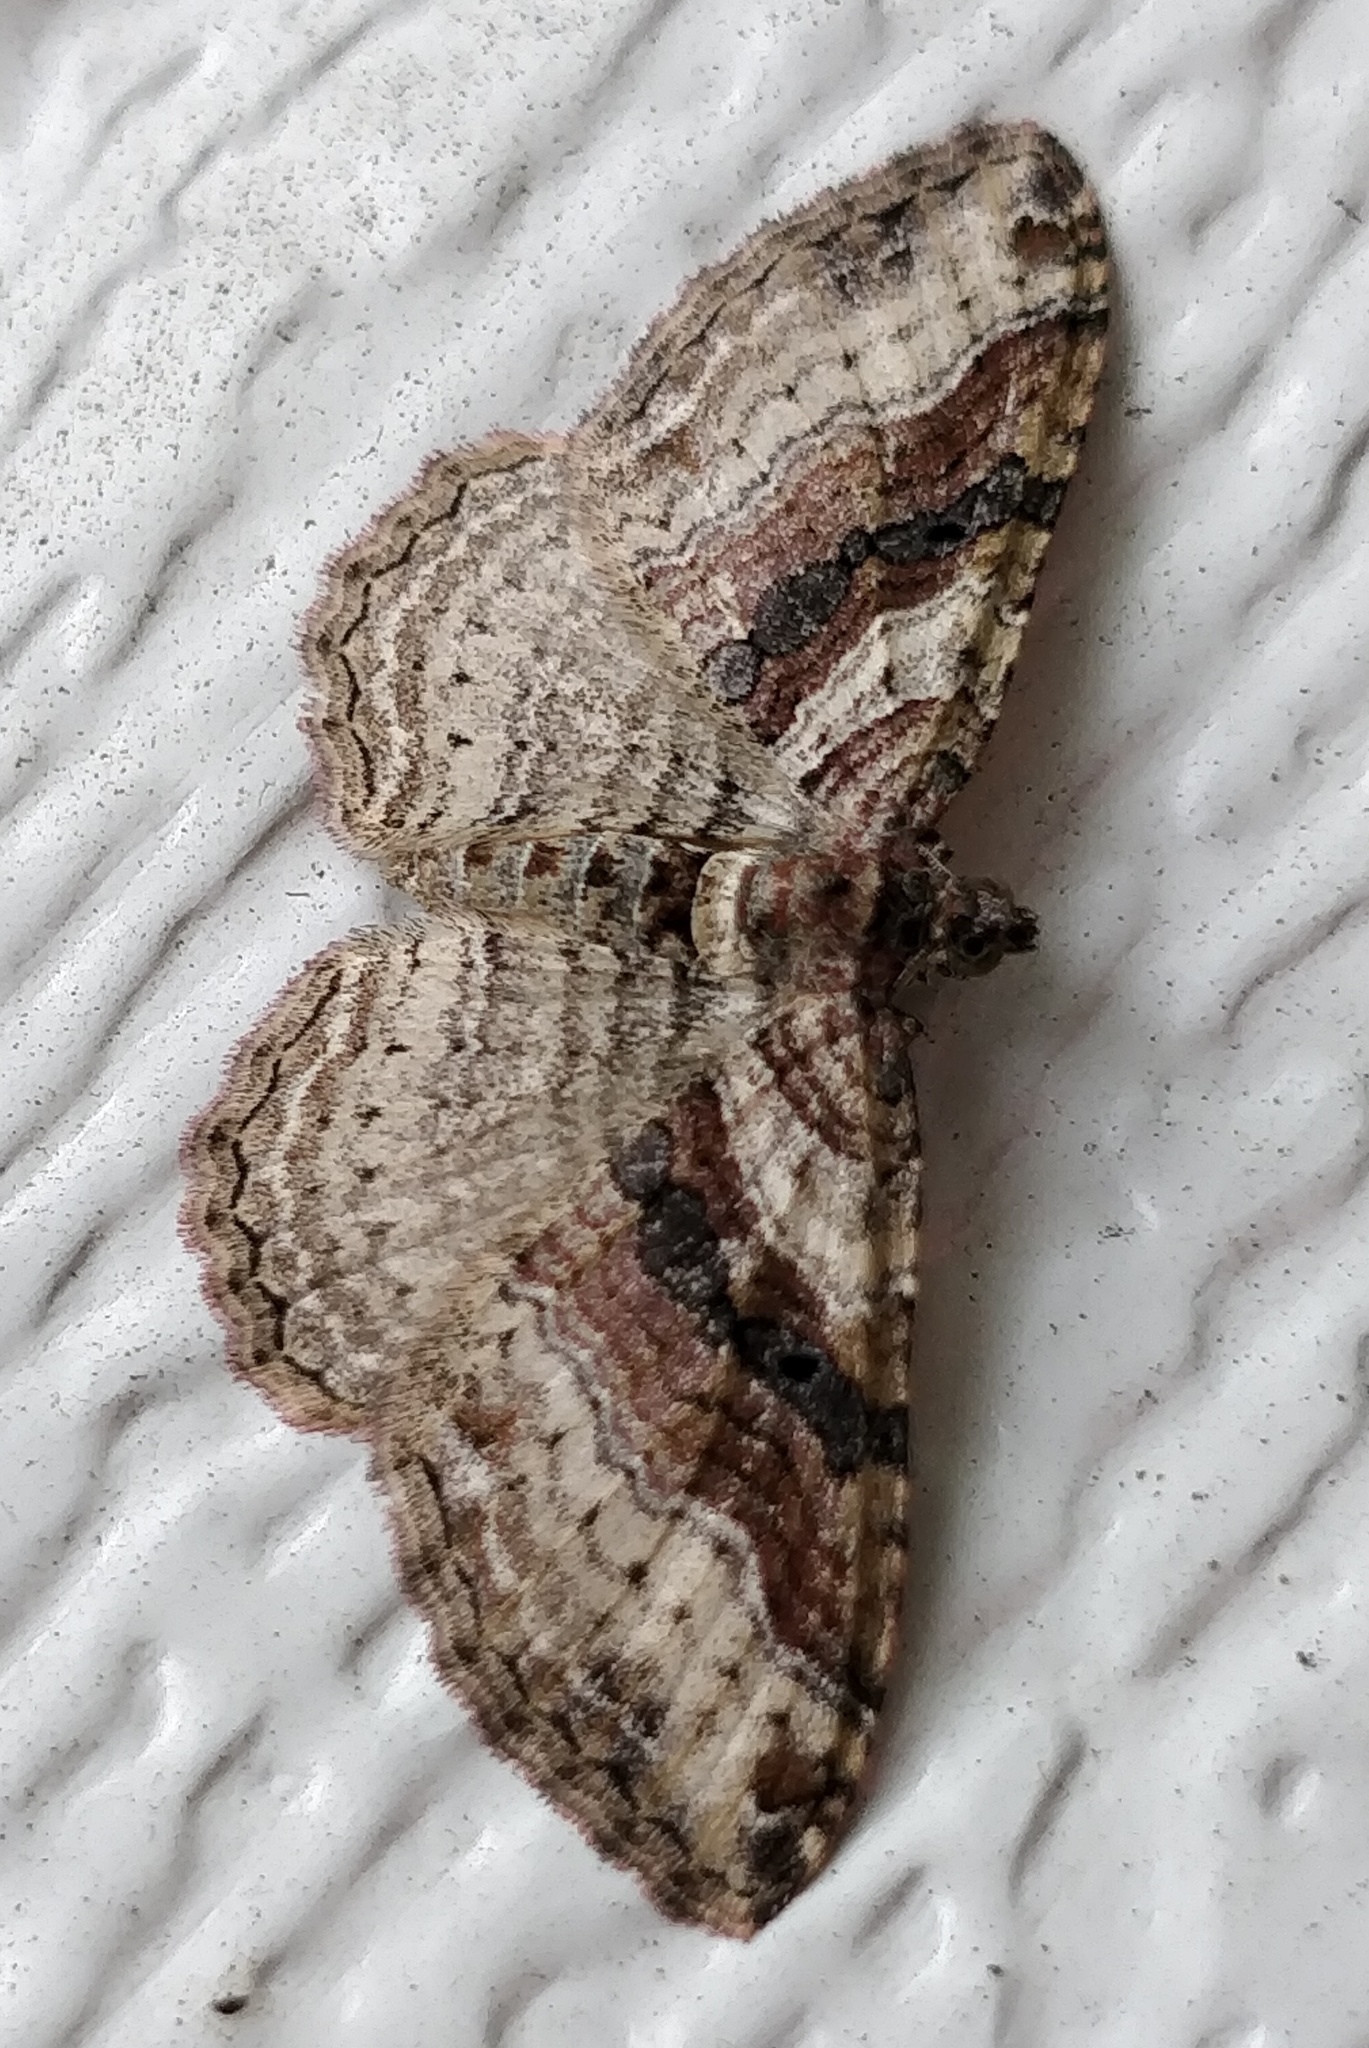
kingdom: Animalia
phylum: Arthropoda
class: Insecta
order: Lepidoptera
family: Geometridae
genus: Costaconvexa
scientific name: Costaconvexa centrostrigaria
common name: Bent-line carpet
